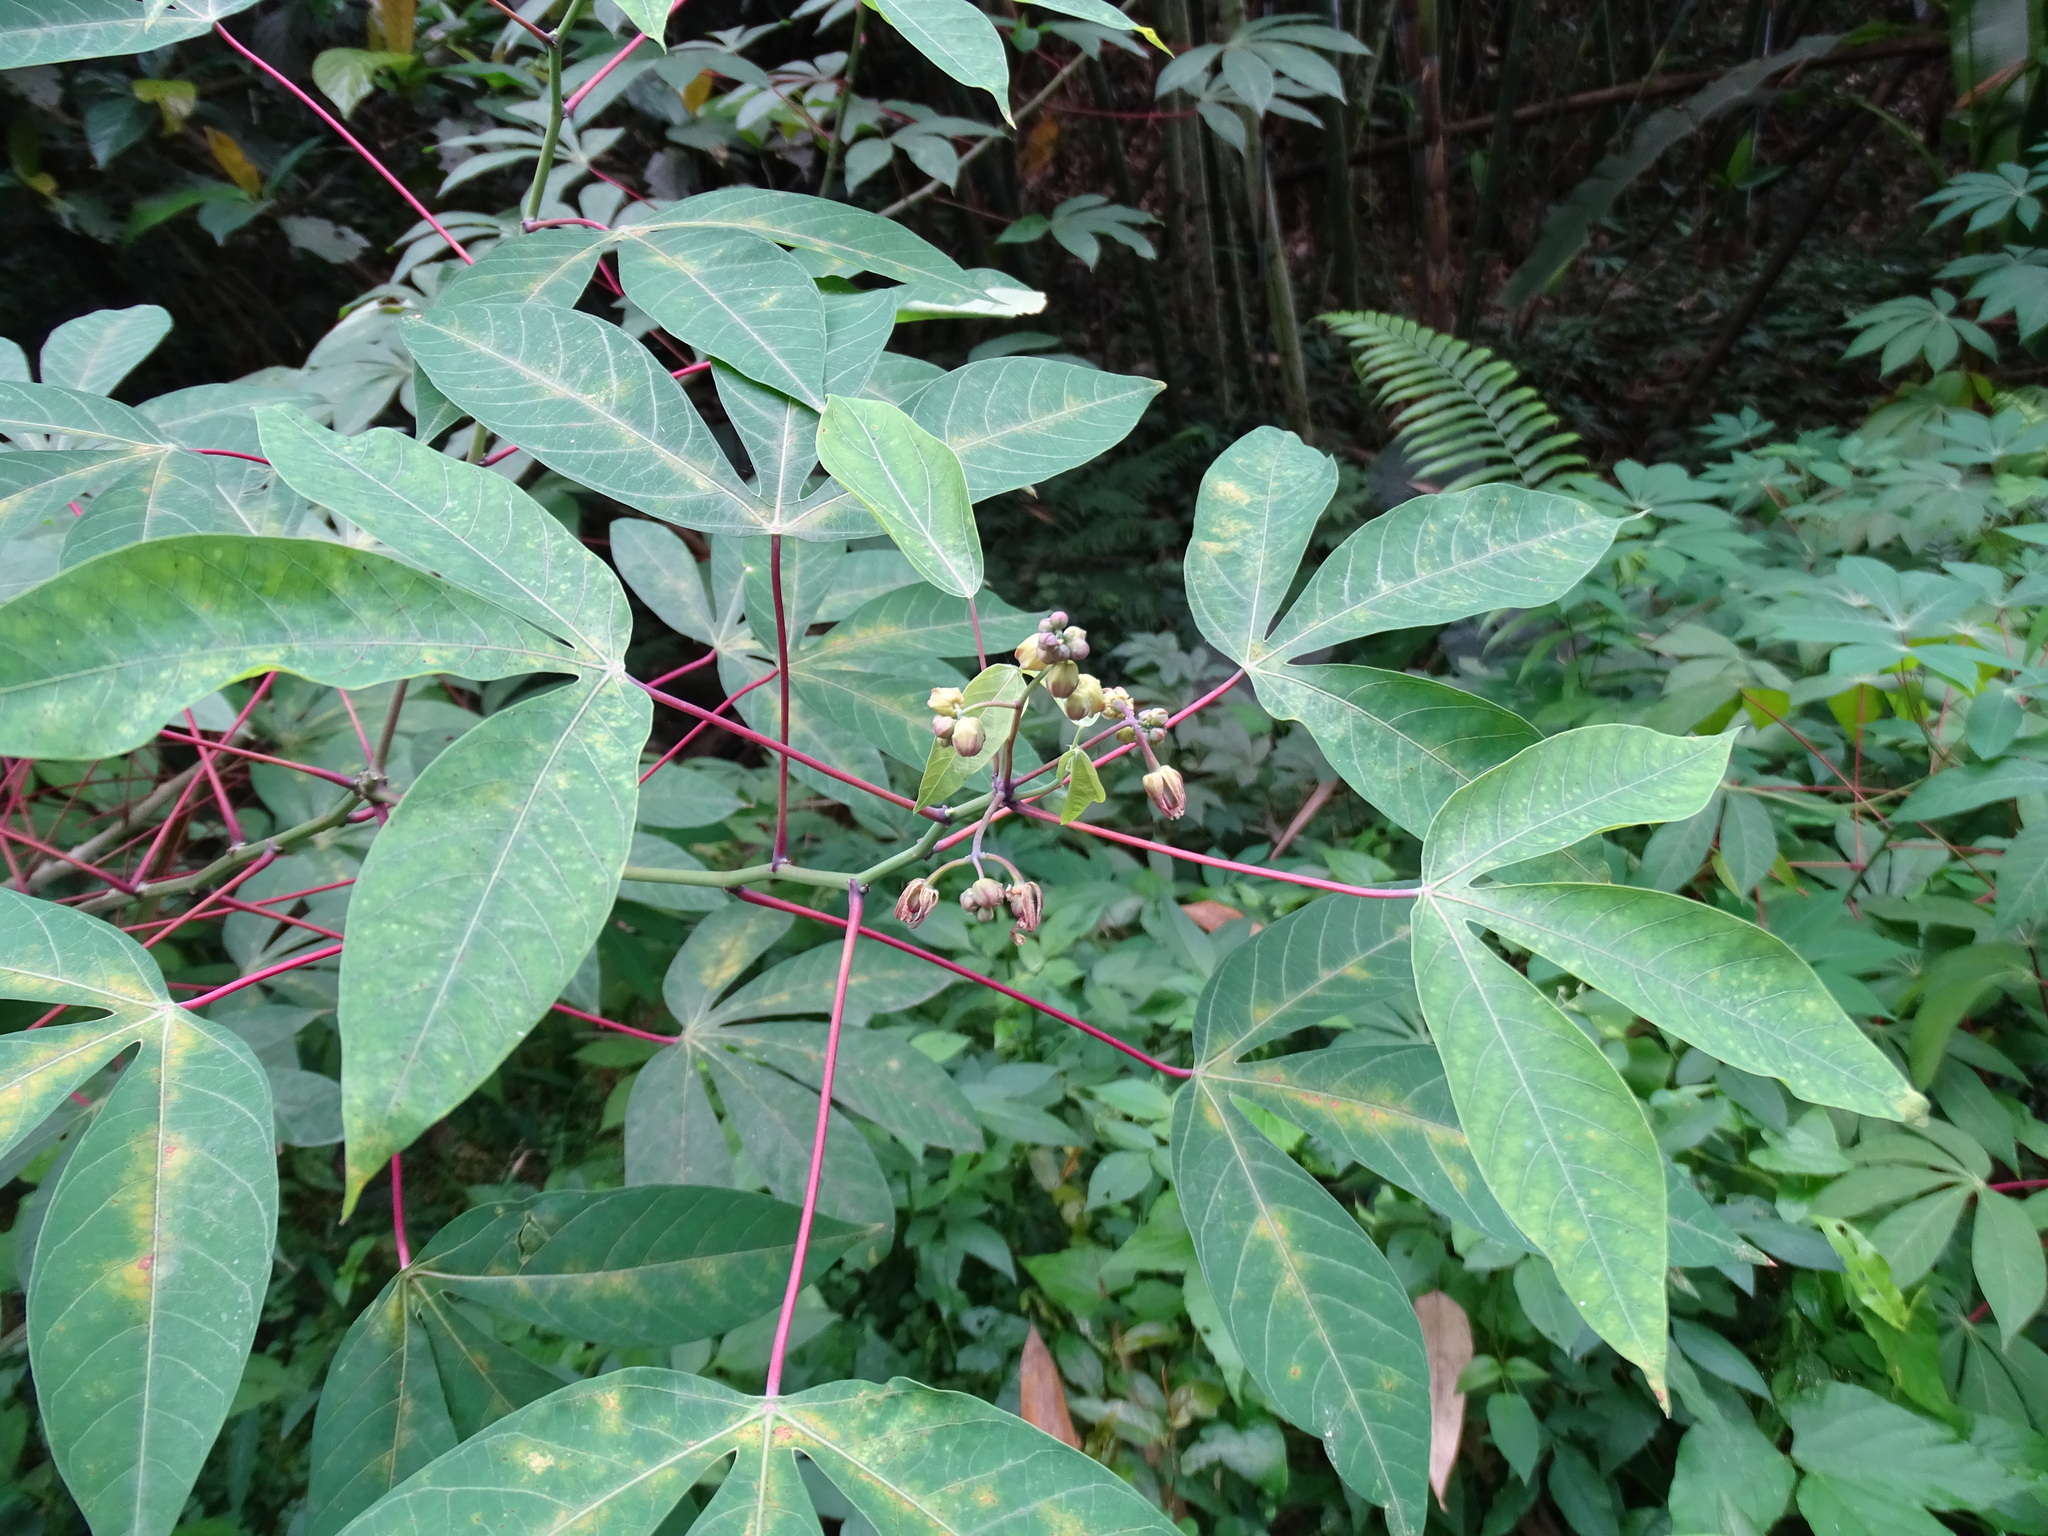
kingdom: Plantae
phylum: Tracheophyta
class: Magnoliopsida
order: Malpighiales
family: Euphorbiaceae
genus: Manihot
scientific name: Manihot esculenta
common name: Cassava
